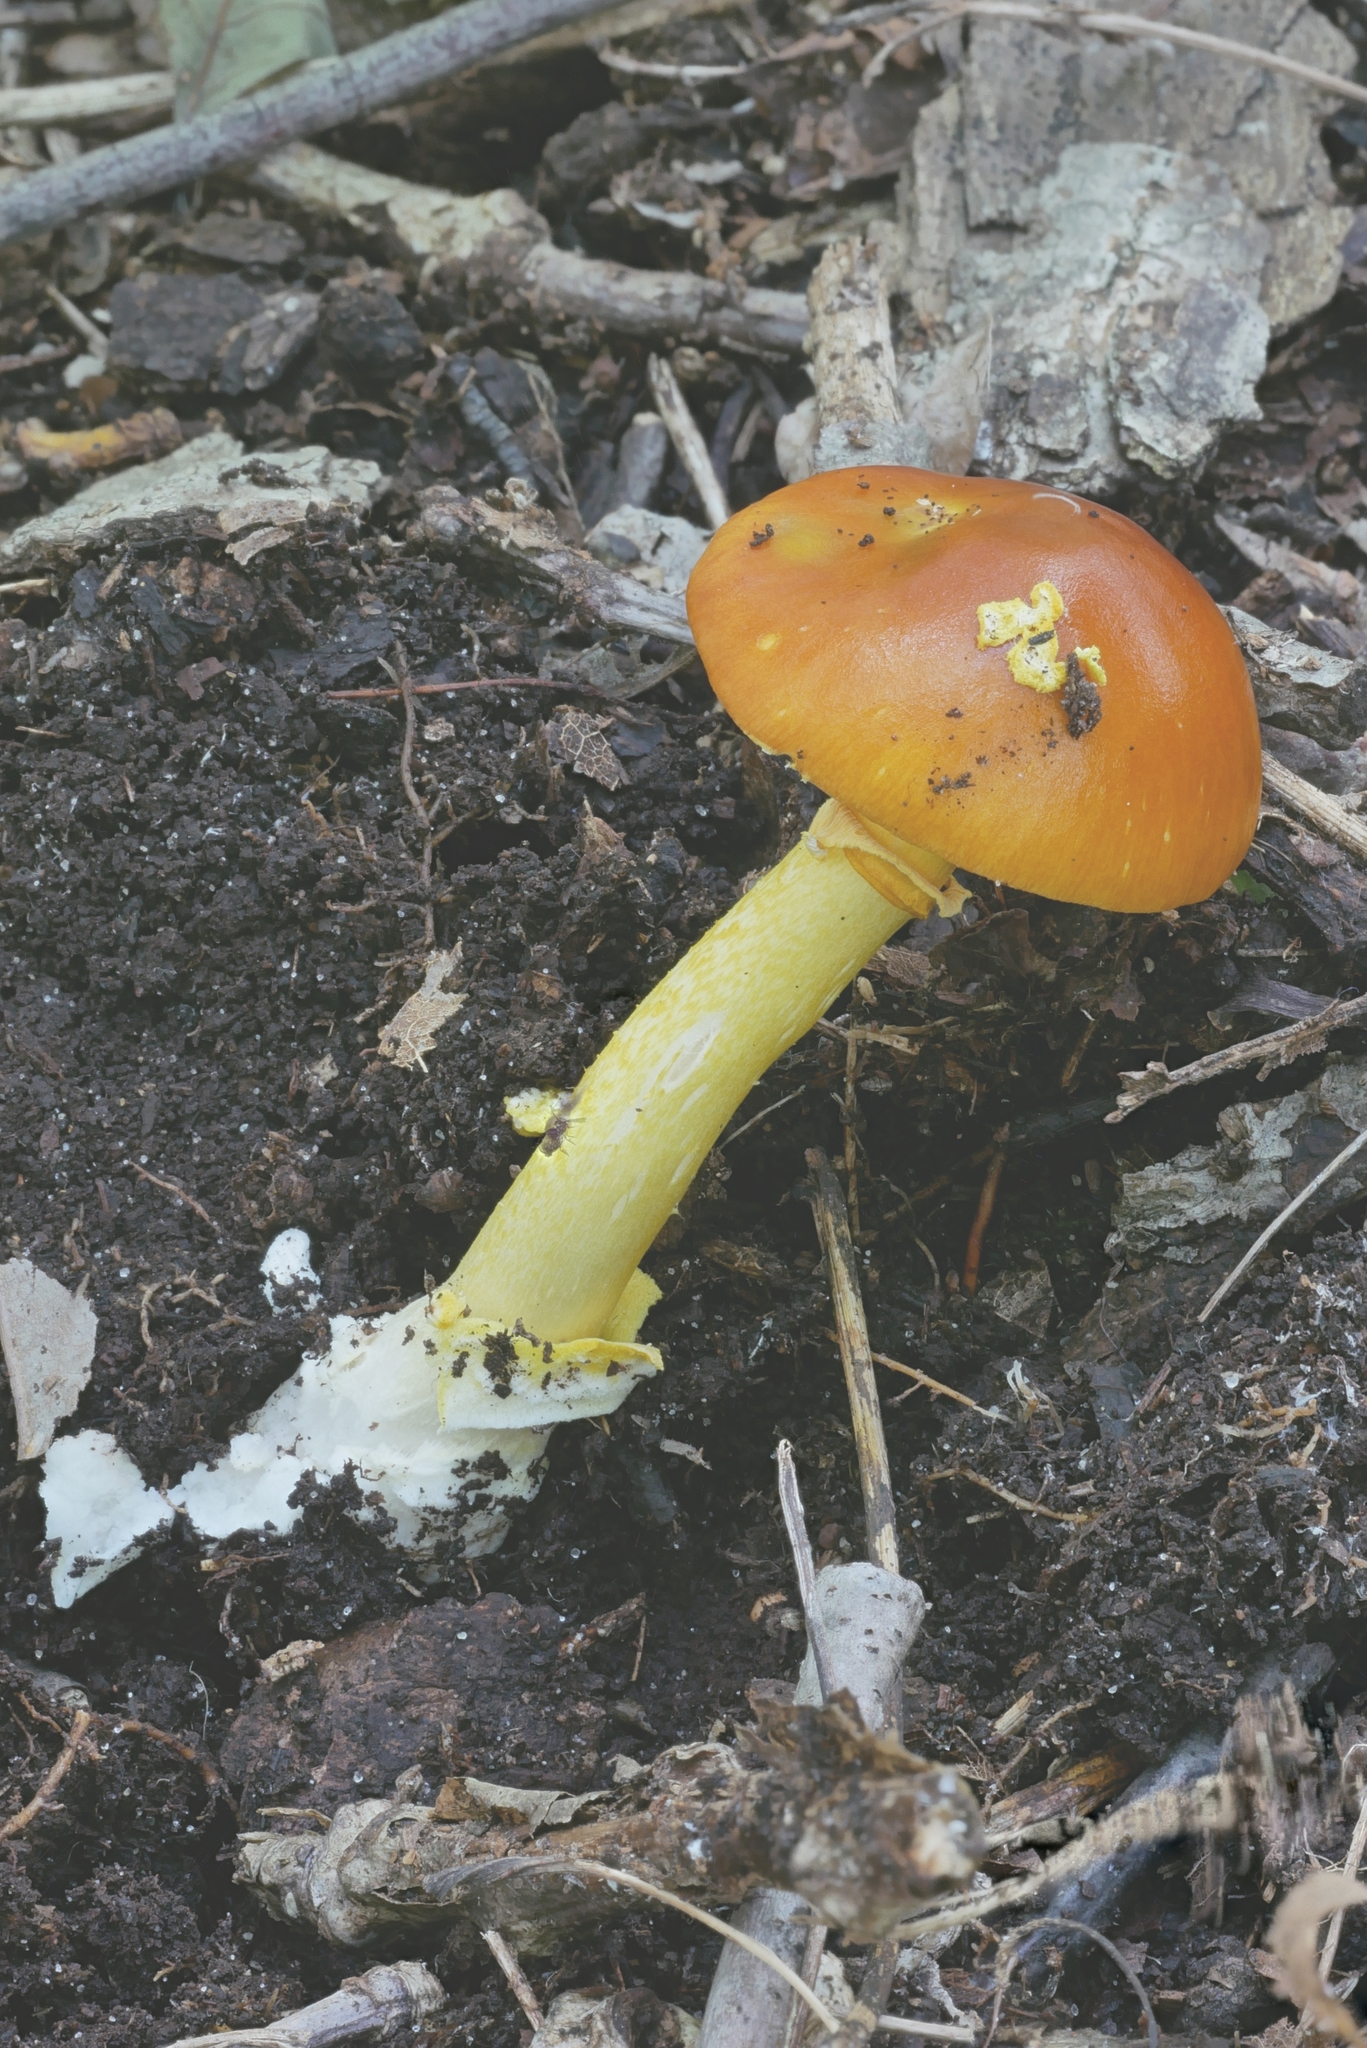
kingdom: Fungi
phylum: Basidiomycota
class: Agaricomycetes
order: Agaricales
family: Amanitaceae
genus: Amanita
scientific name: Amanita flavoconia
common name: Yellow patches
